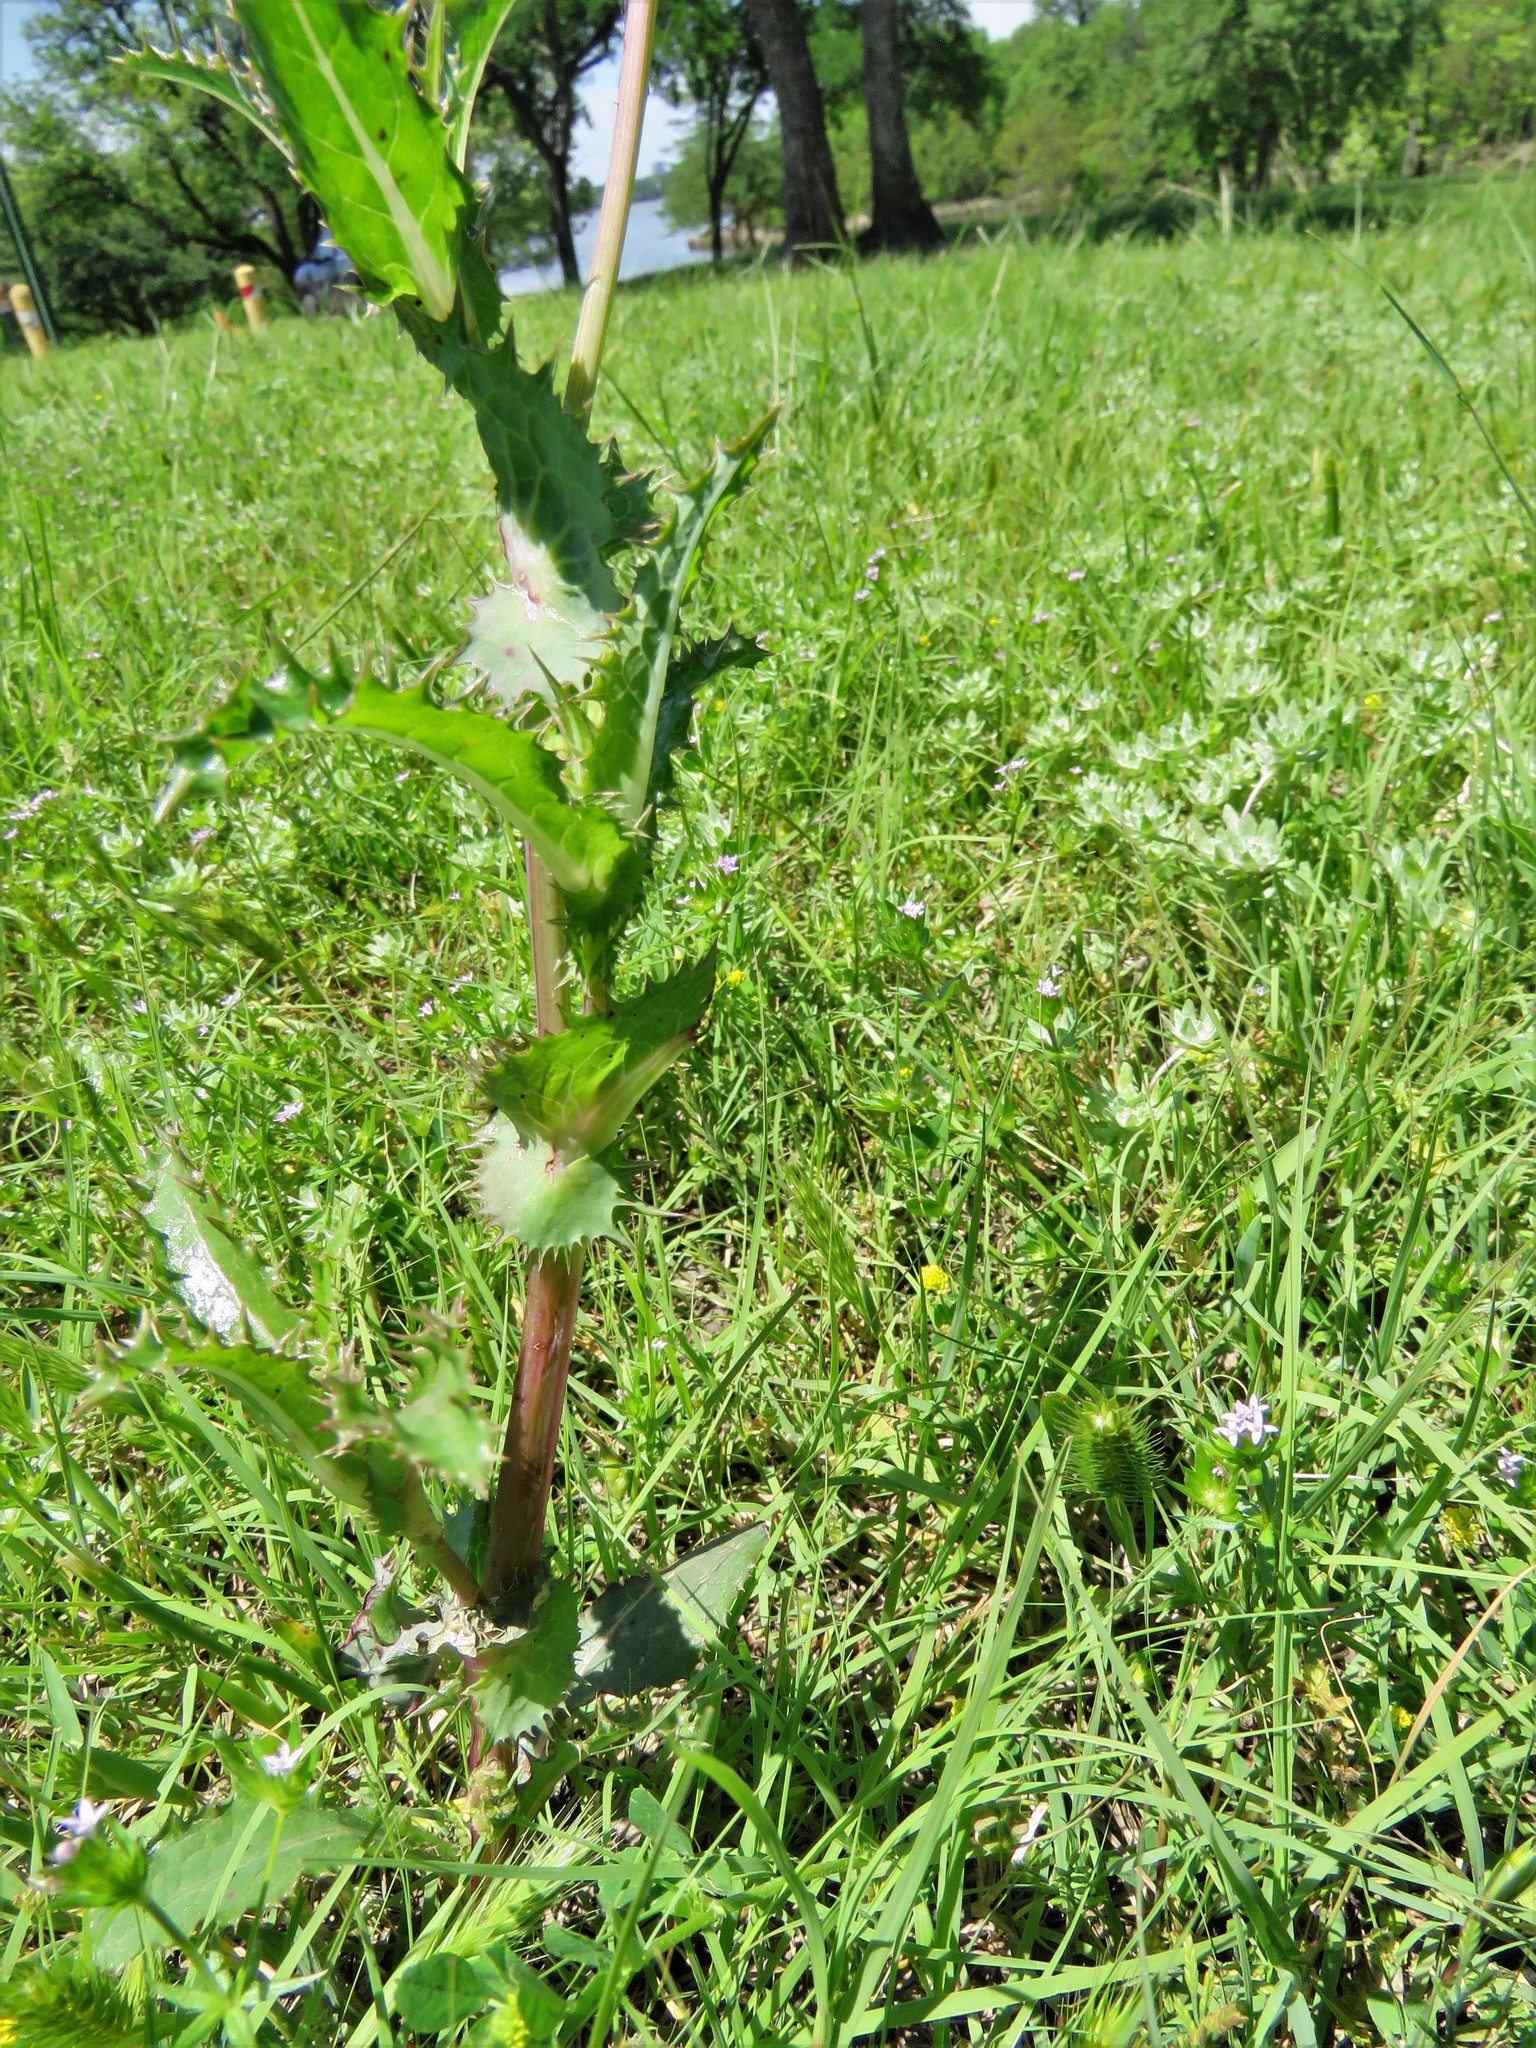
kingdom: Plantae
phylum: Tracheophyta
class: Magnoliopsida
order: Asterales
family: Asteraceae
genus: Sonchus
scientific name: Sonchus asper
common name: Prickly sow-thistle
